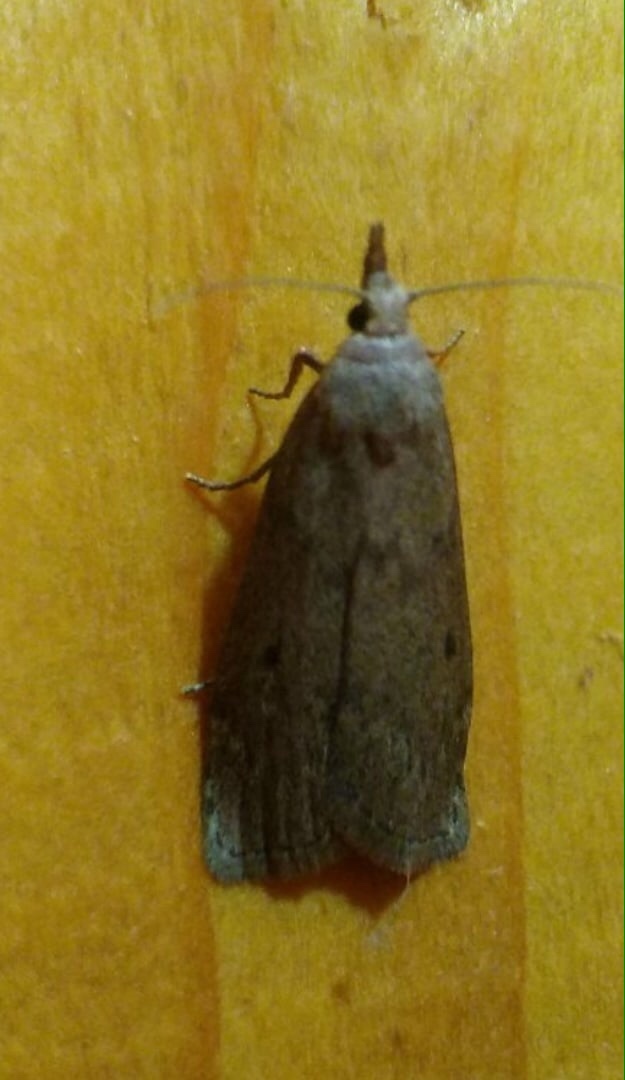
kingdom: Animalia
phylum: Arthropoda
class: Insecta
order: Lepidoptera
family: Pyralidae
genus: Aphomia
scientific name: Aphomia sociella
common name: Bee moth
